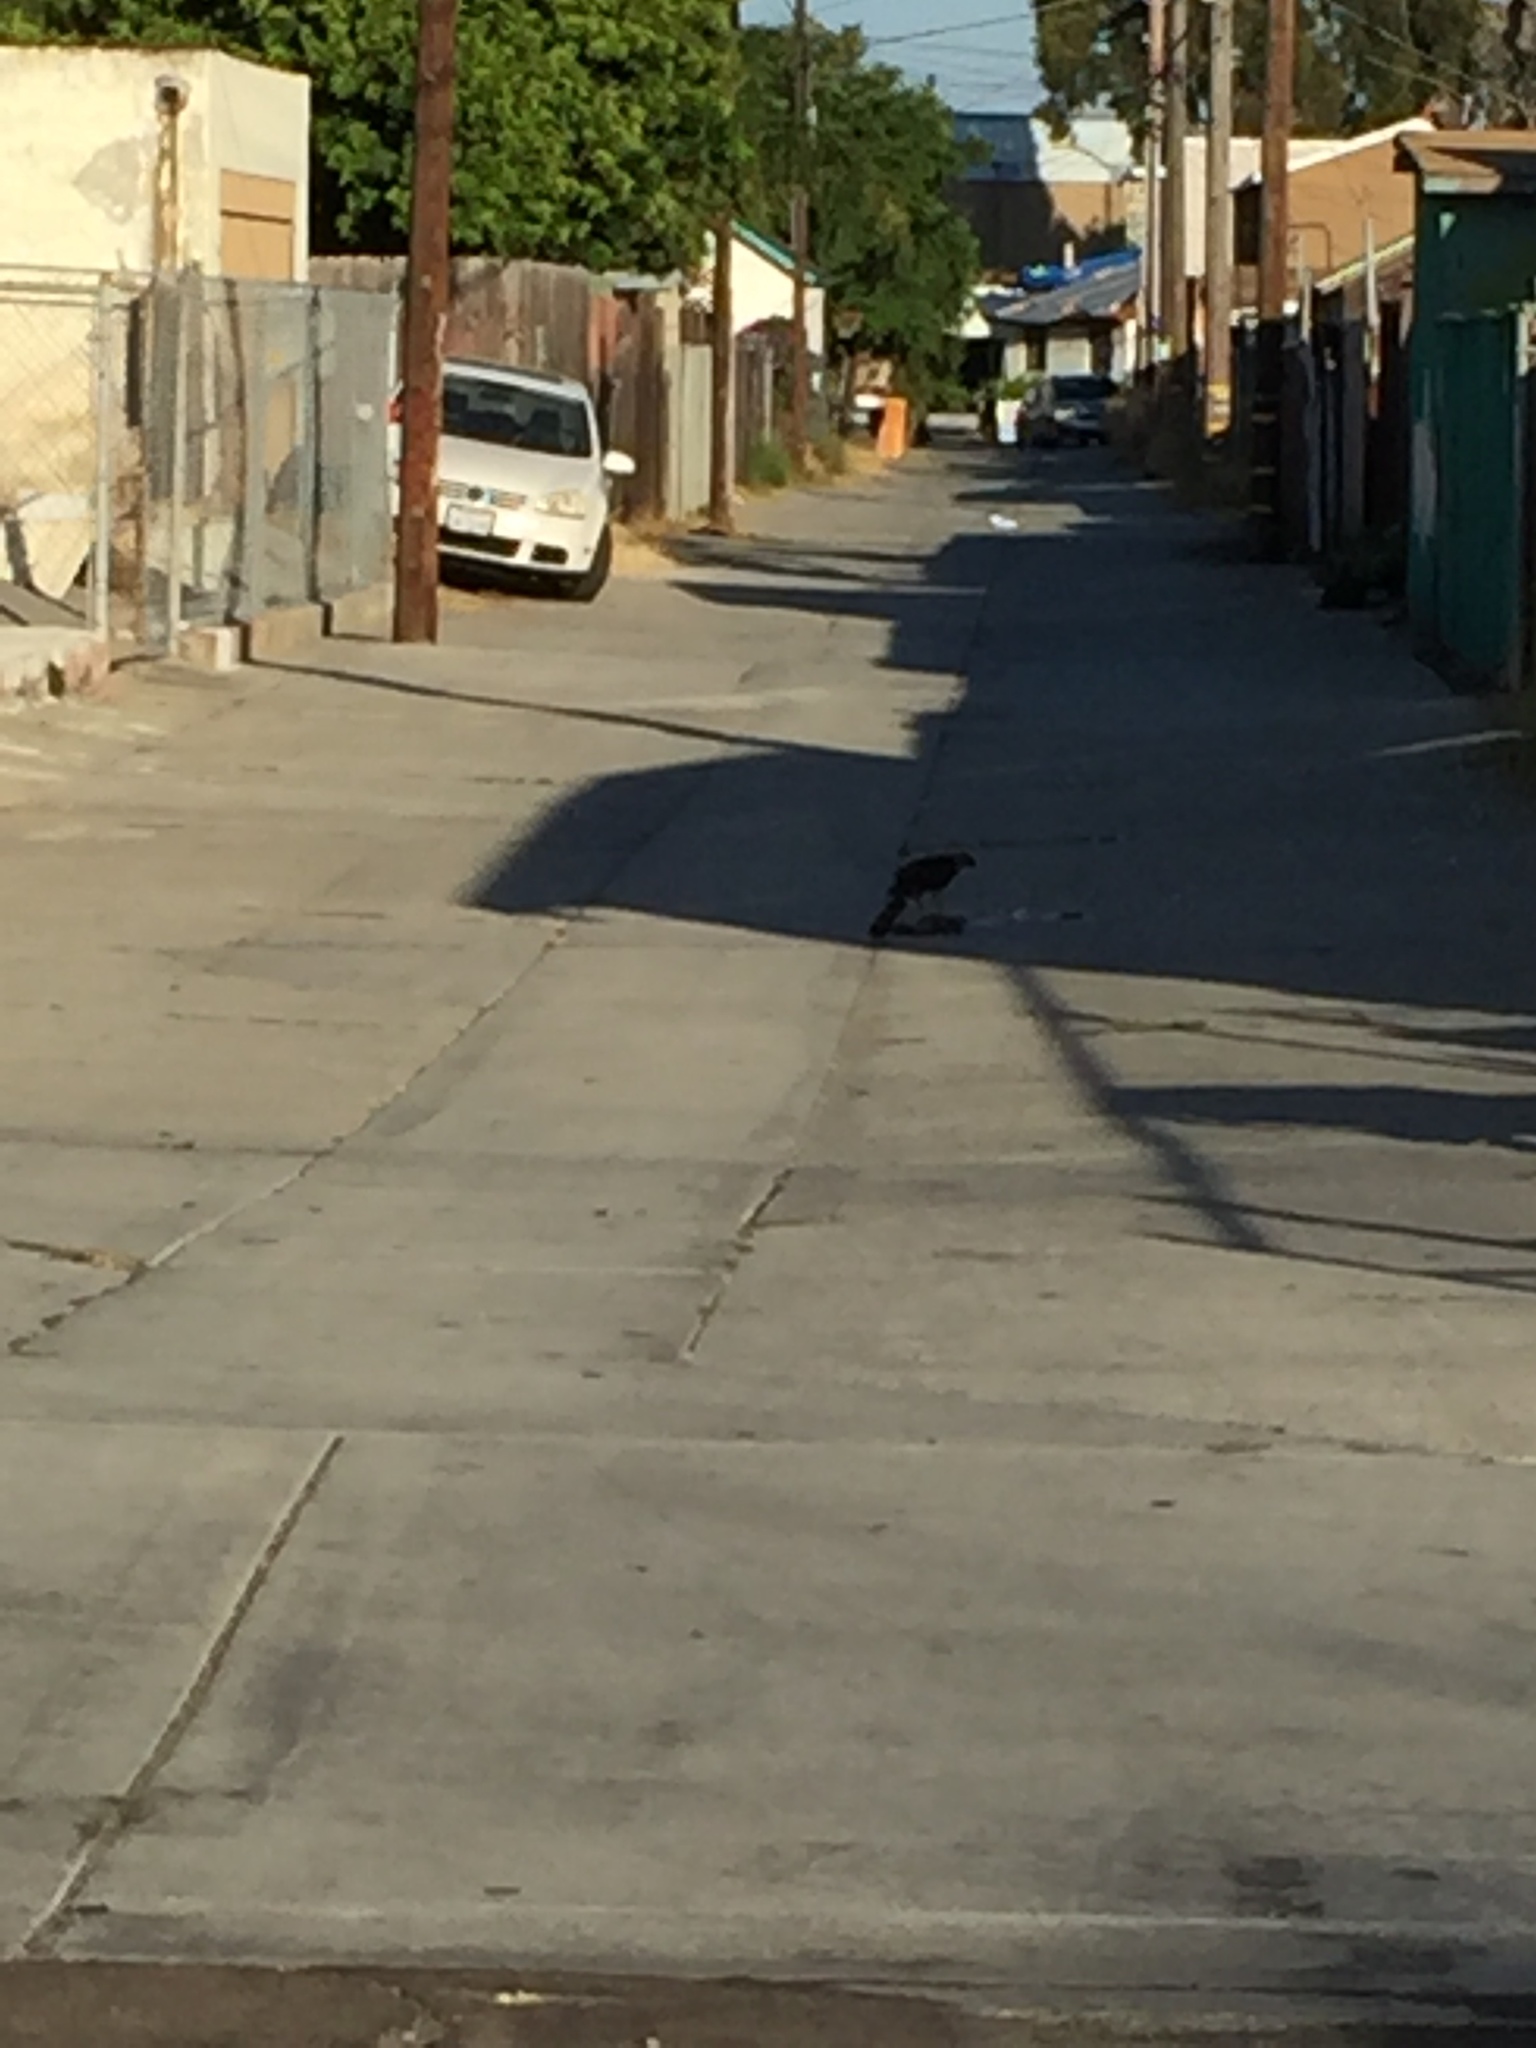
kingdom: Animalia
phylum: Chordata
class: Aves
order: Accipitriformes
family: Accipitridae
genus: Accipiter
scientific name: Accipiter cooperii
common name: Cooper's hawk
